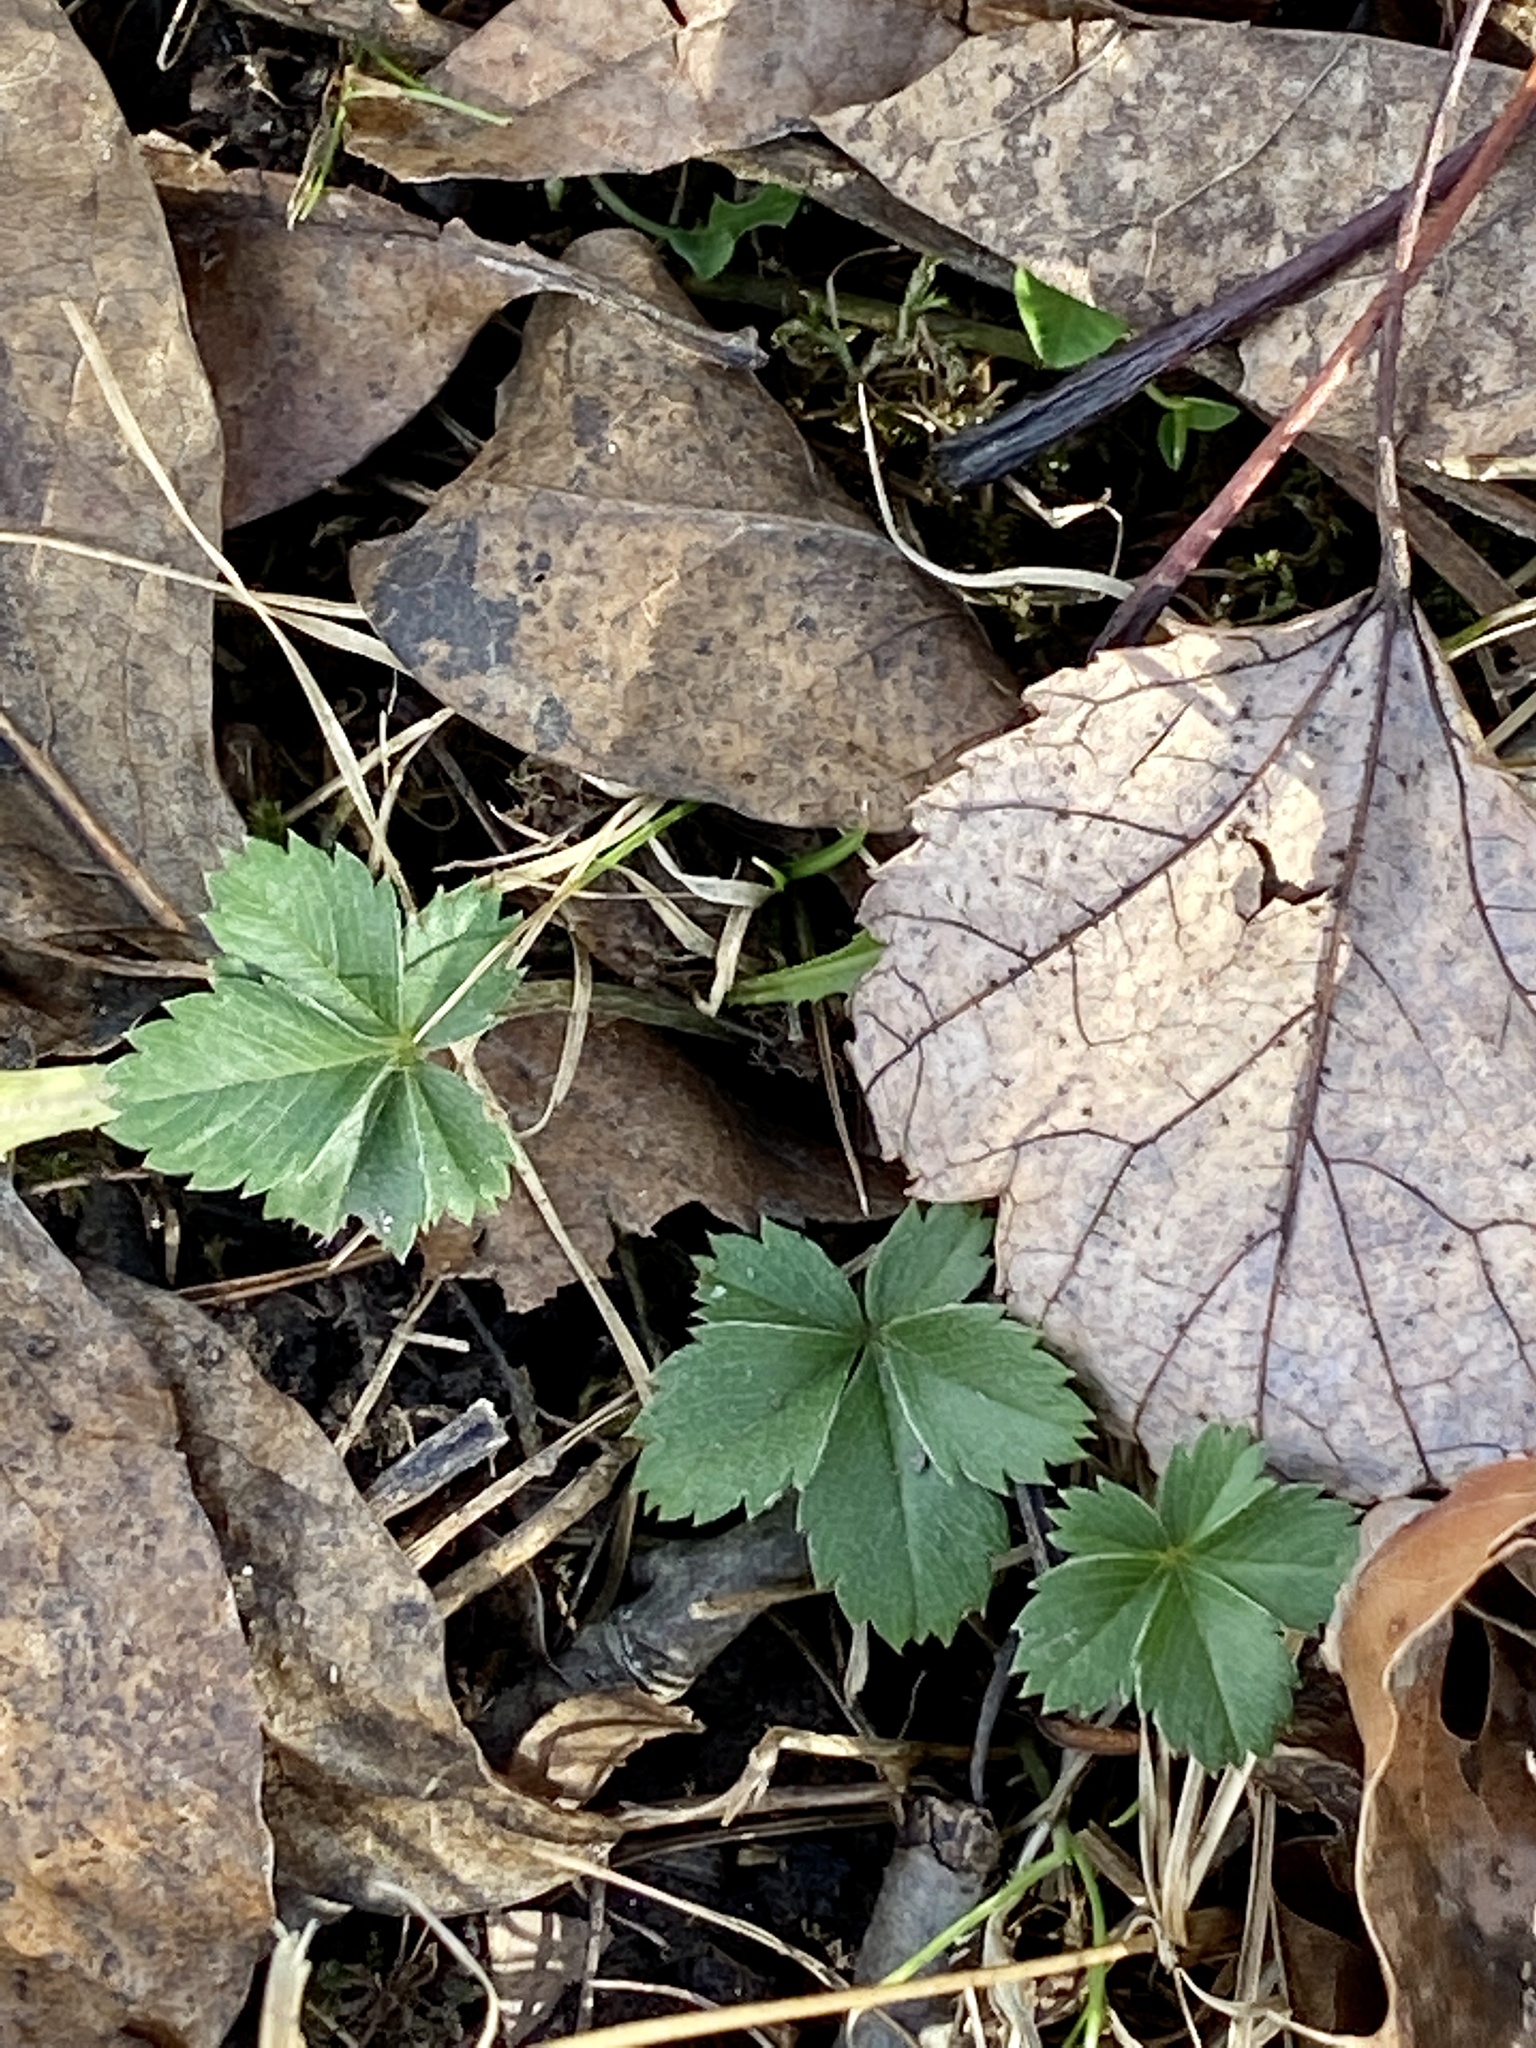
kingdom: Plantae
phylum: Tracheophyta
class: Magnoliopsida
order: Rosales
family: Rosaceae
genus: Potentilla
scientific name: Potentilla canadensis
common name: Canada cinquefoil
